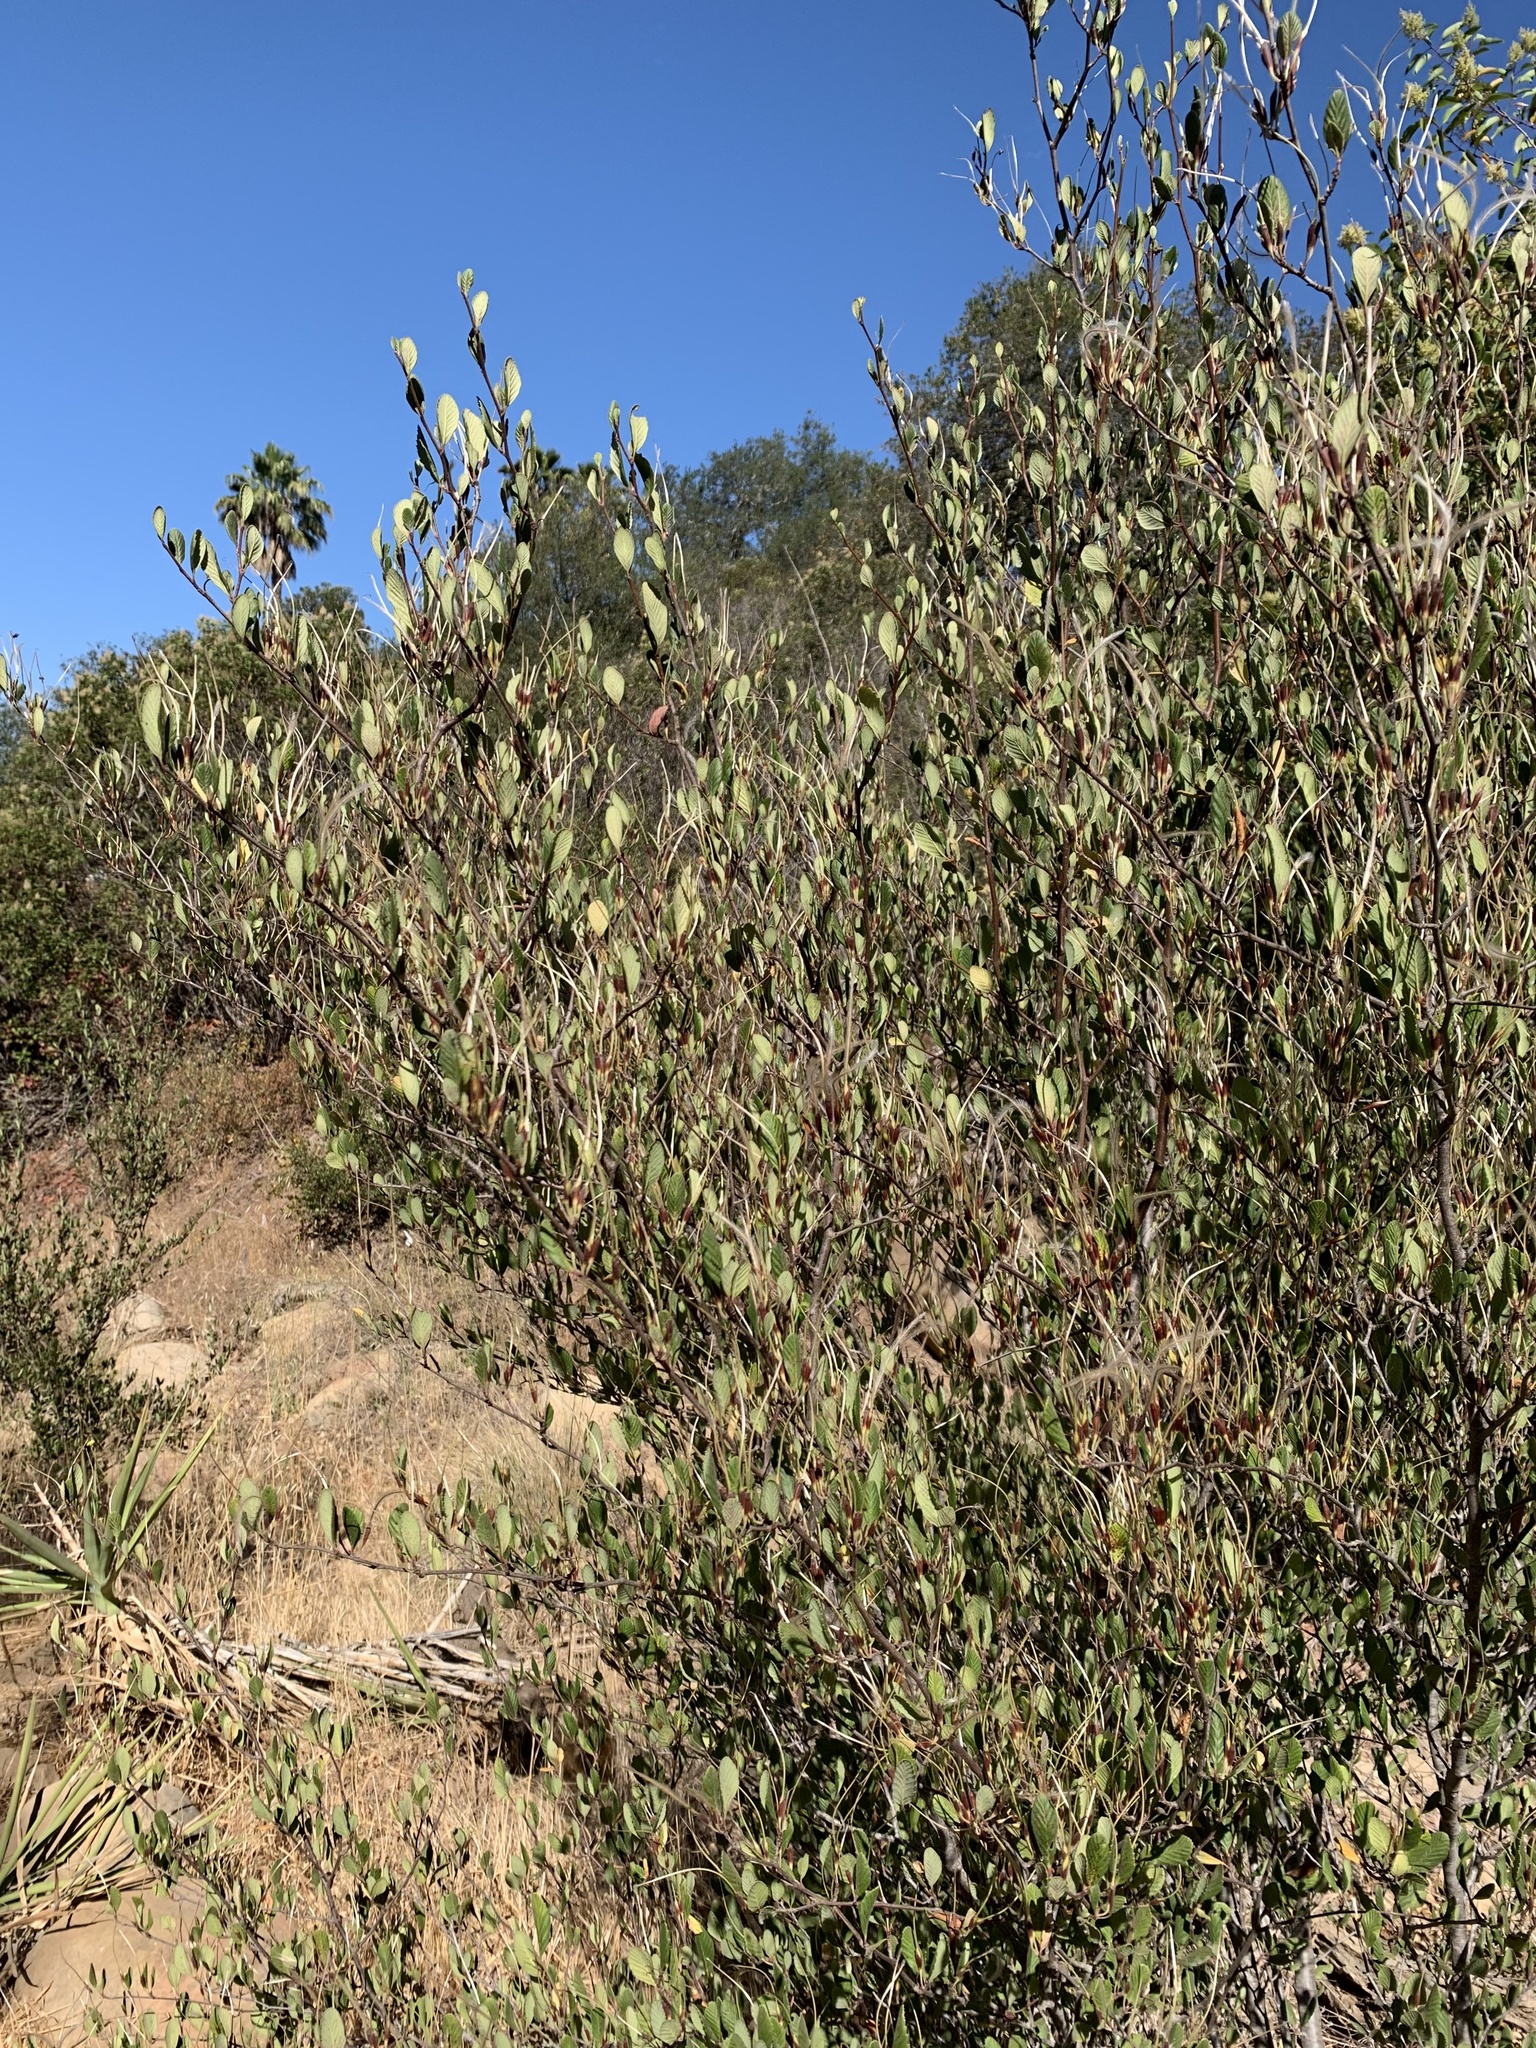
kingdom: Plantae
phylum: Tracheophyta
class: Magnoliopsida
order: Rosales
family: Rosaceae
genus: Cercocarpus
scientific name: Cercocarpus betuloides
